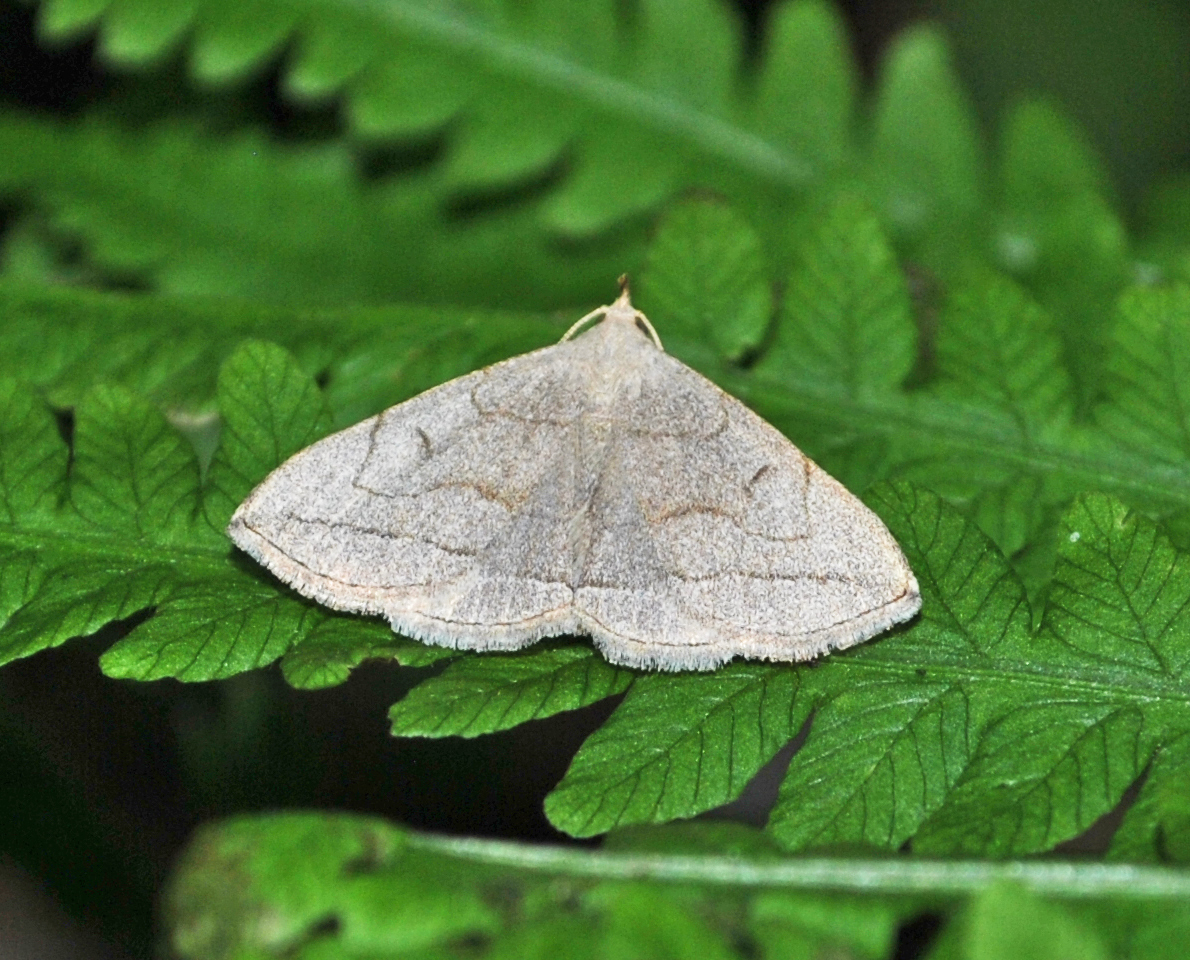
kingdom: Animalia
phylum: Arthropoda
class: Insecta
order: Lepidoptera
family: Erebidae
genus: Zanclognatha
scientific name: Zanclognatha pedipilalis
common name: Grayish fan-foot
